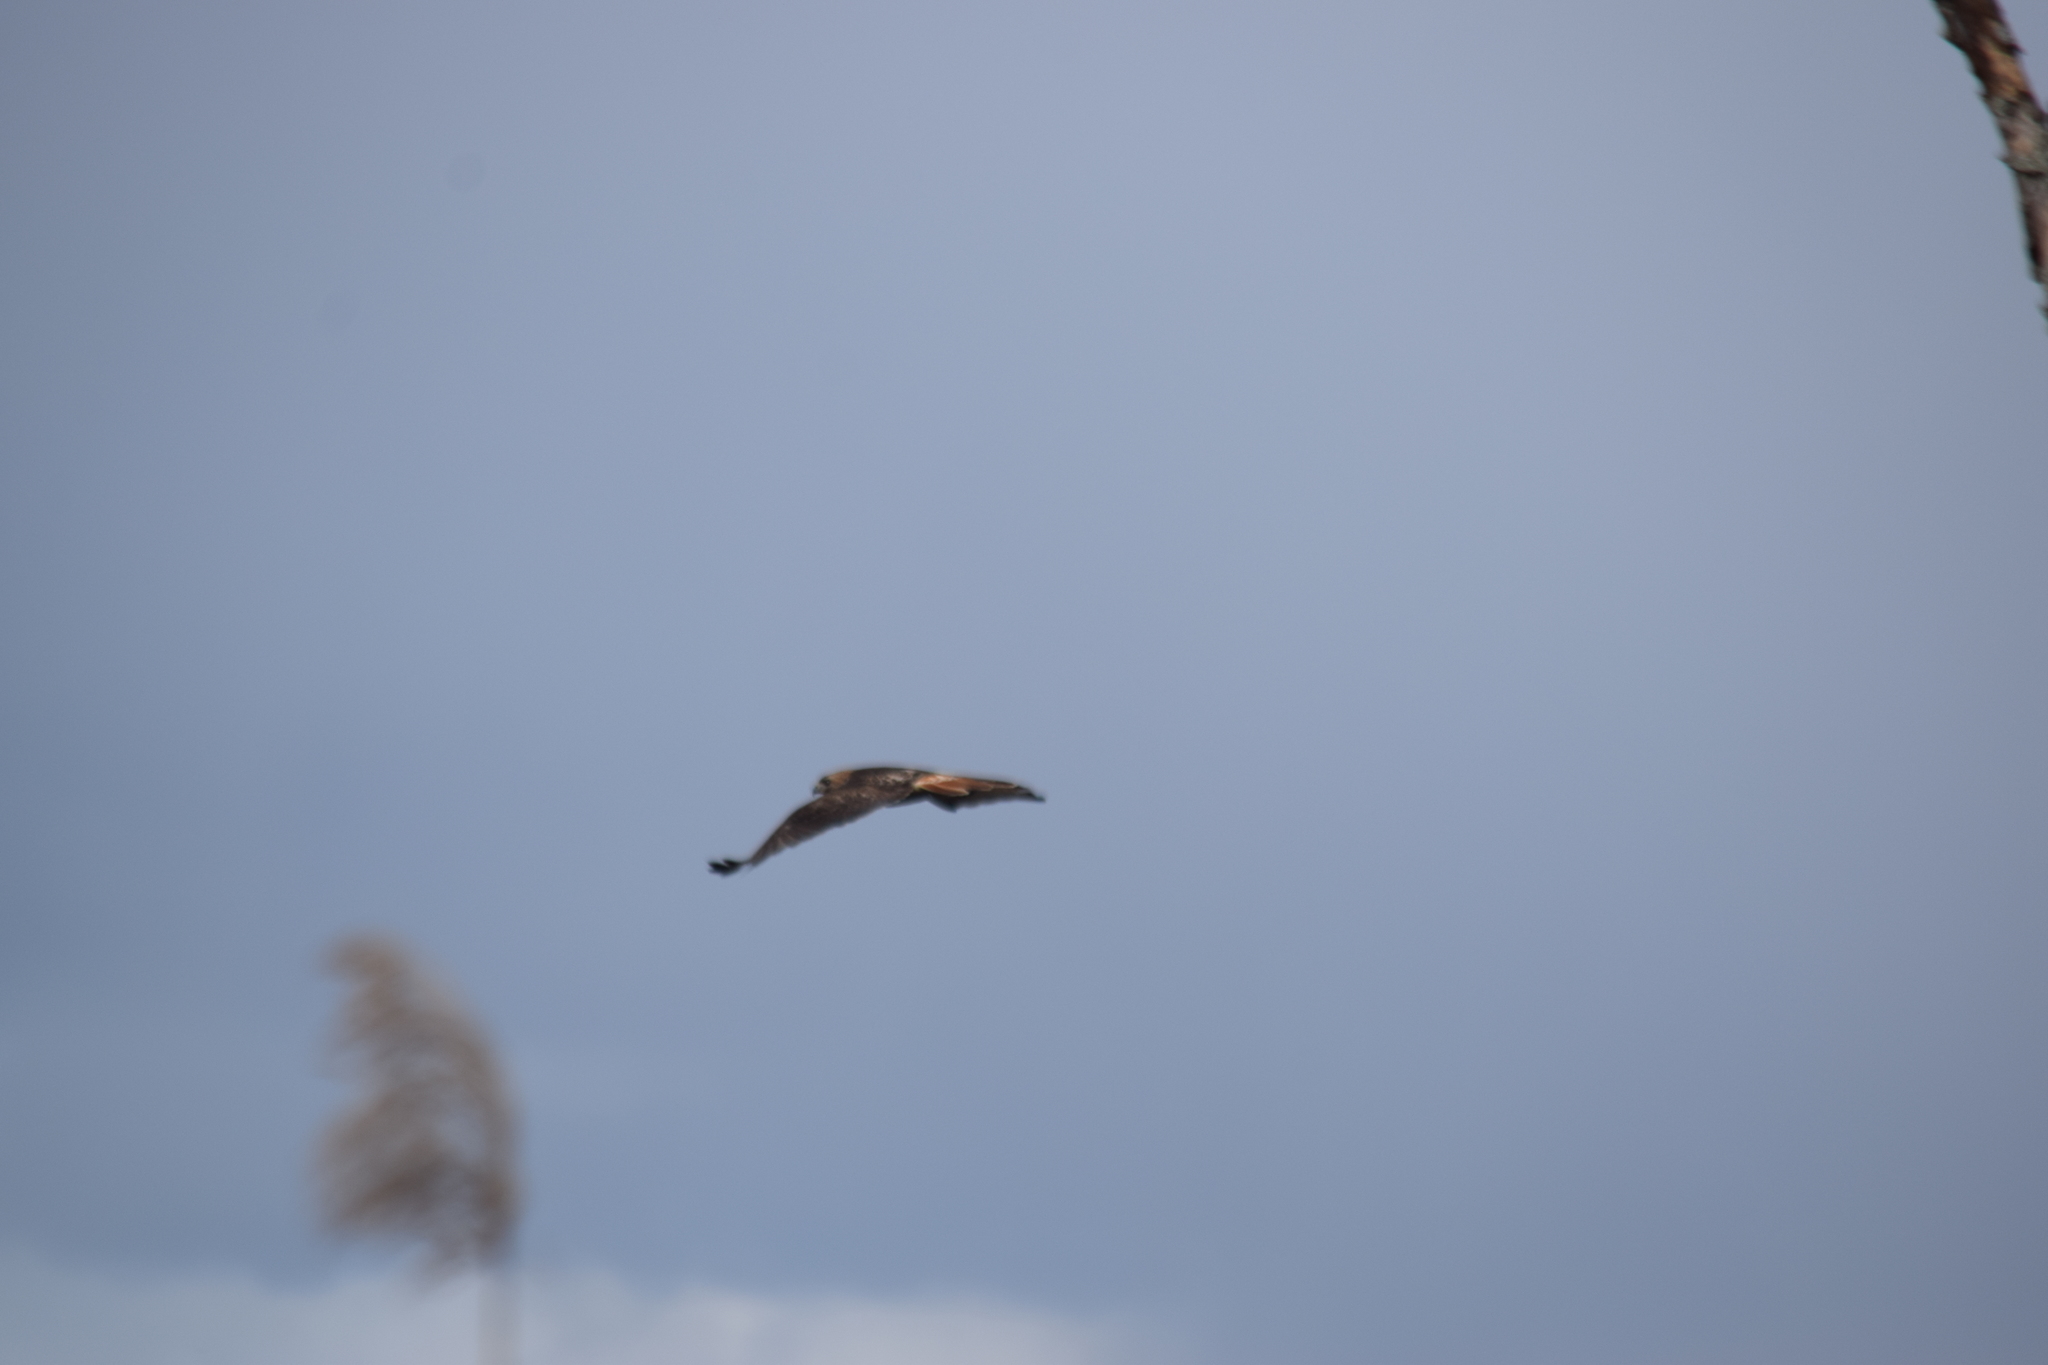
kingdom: Animalia
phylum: Chordata
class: Aves
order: Accipitriformes
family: Accipitridae
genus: Buteo
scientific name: Buteo jamaicensis
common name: Red-tailed hawk
